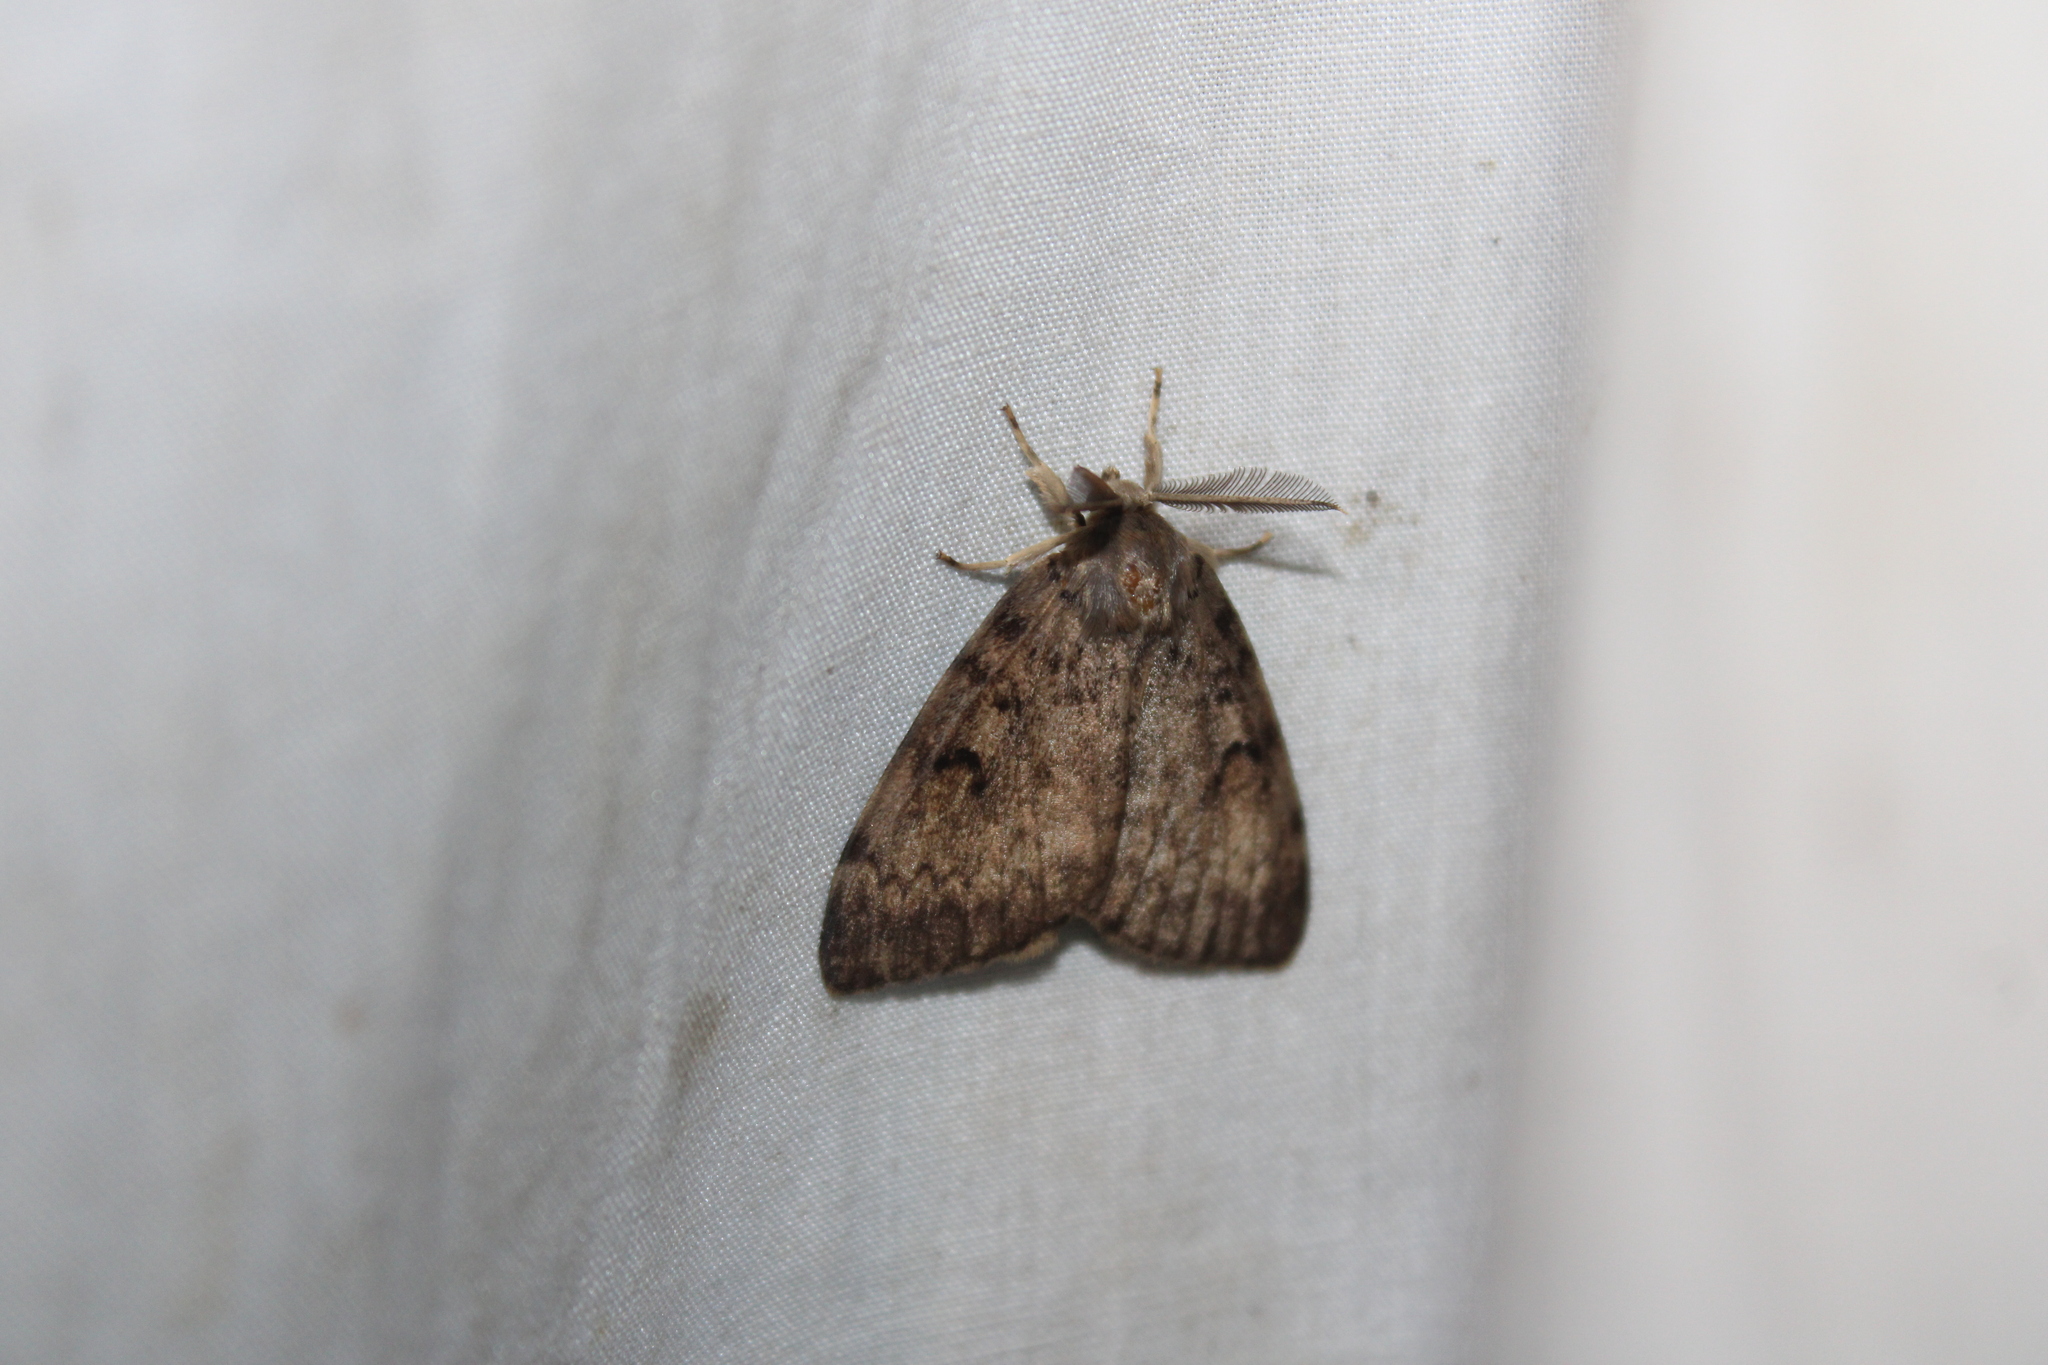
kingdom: Animalia
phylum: Arthropoda
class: Insecta
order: Lepidoptera
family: Erebidae
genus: Lymantria
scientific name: Lymantria dispar
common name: Gypsy moth
